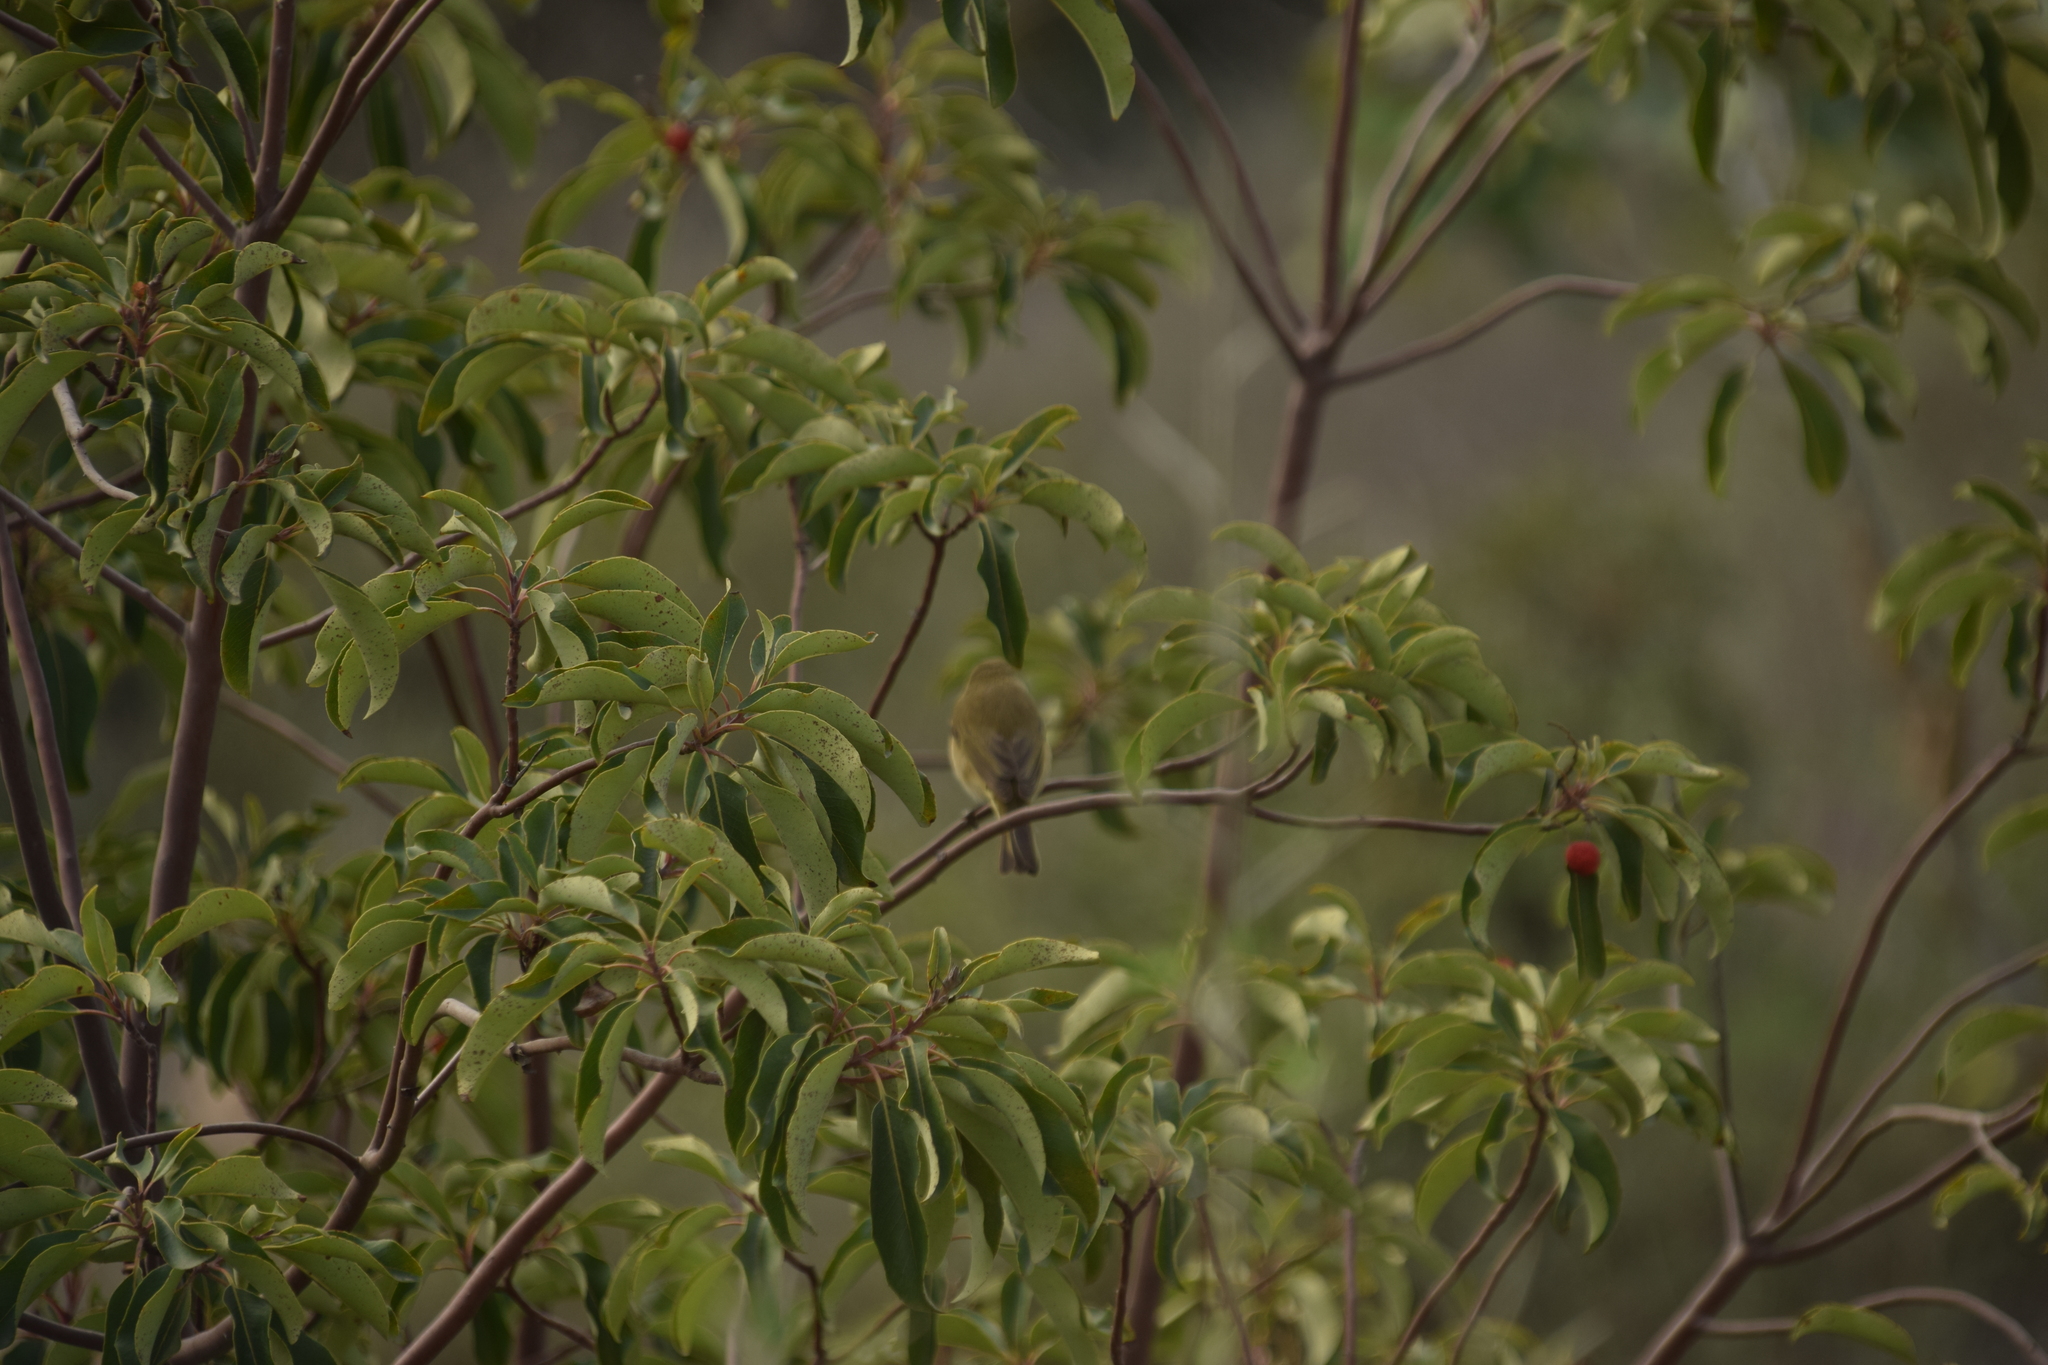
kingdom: Animalia
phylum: Chordata
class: Aves
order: Passeriformes
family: Phylloscopidae
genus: Phylloscopus
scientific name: Phylloscopus collybita
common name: Common chiffchaff
